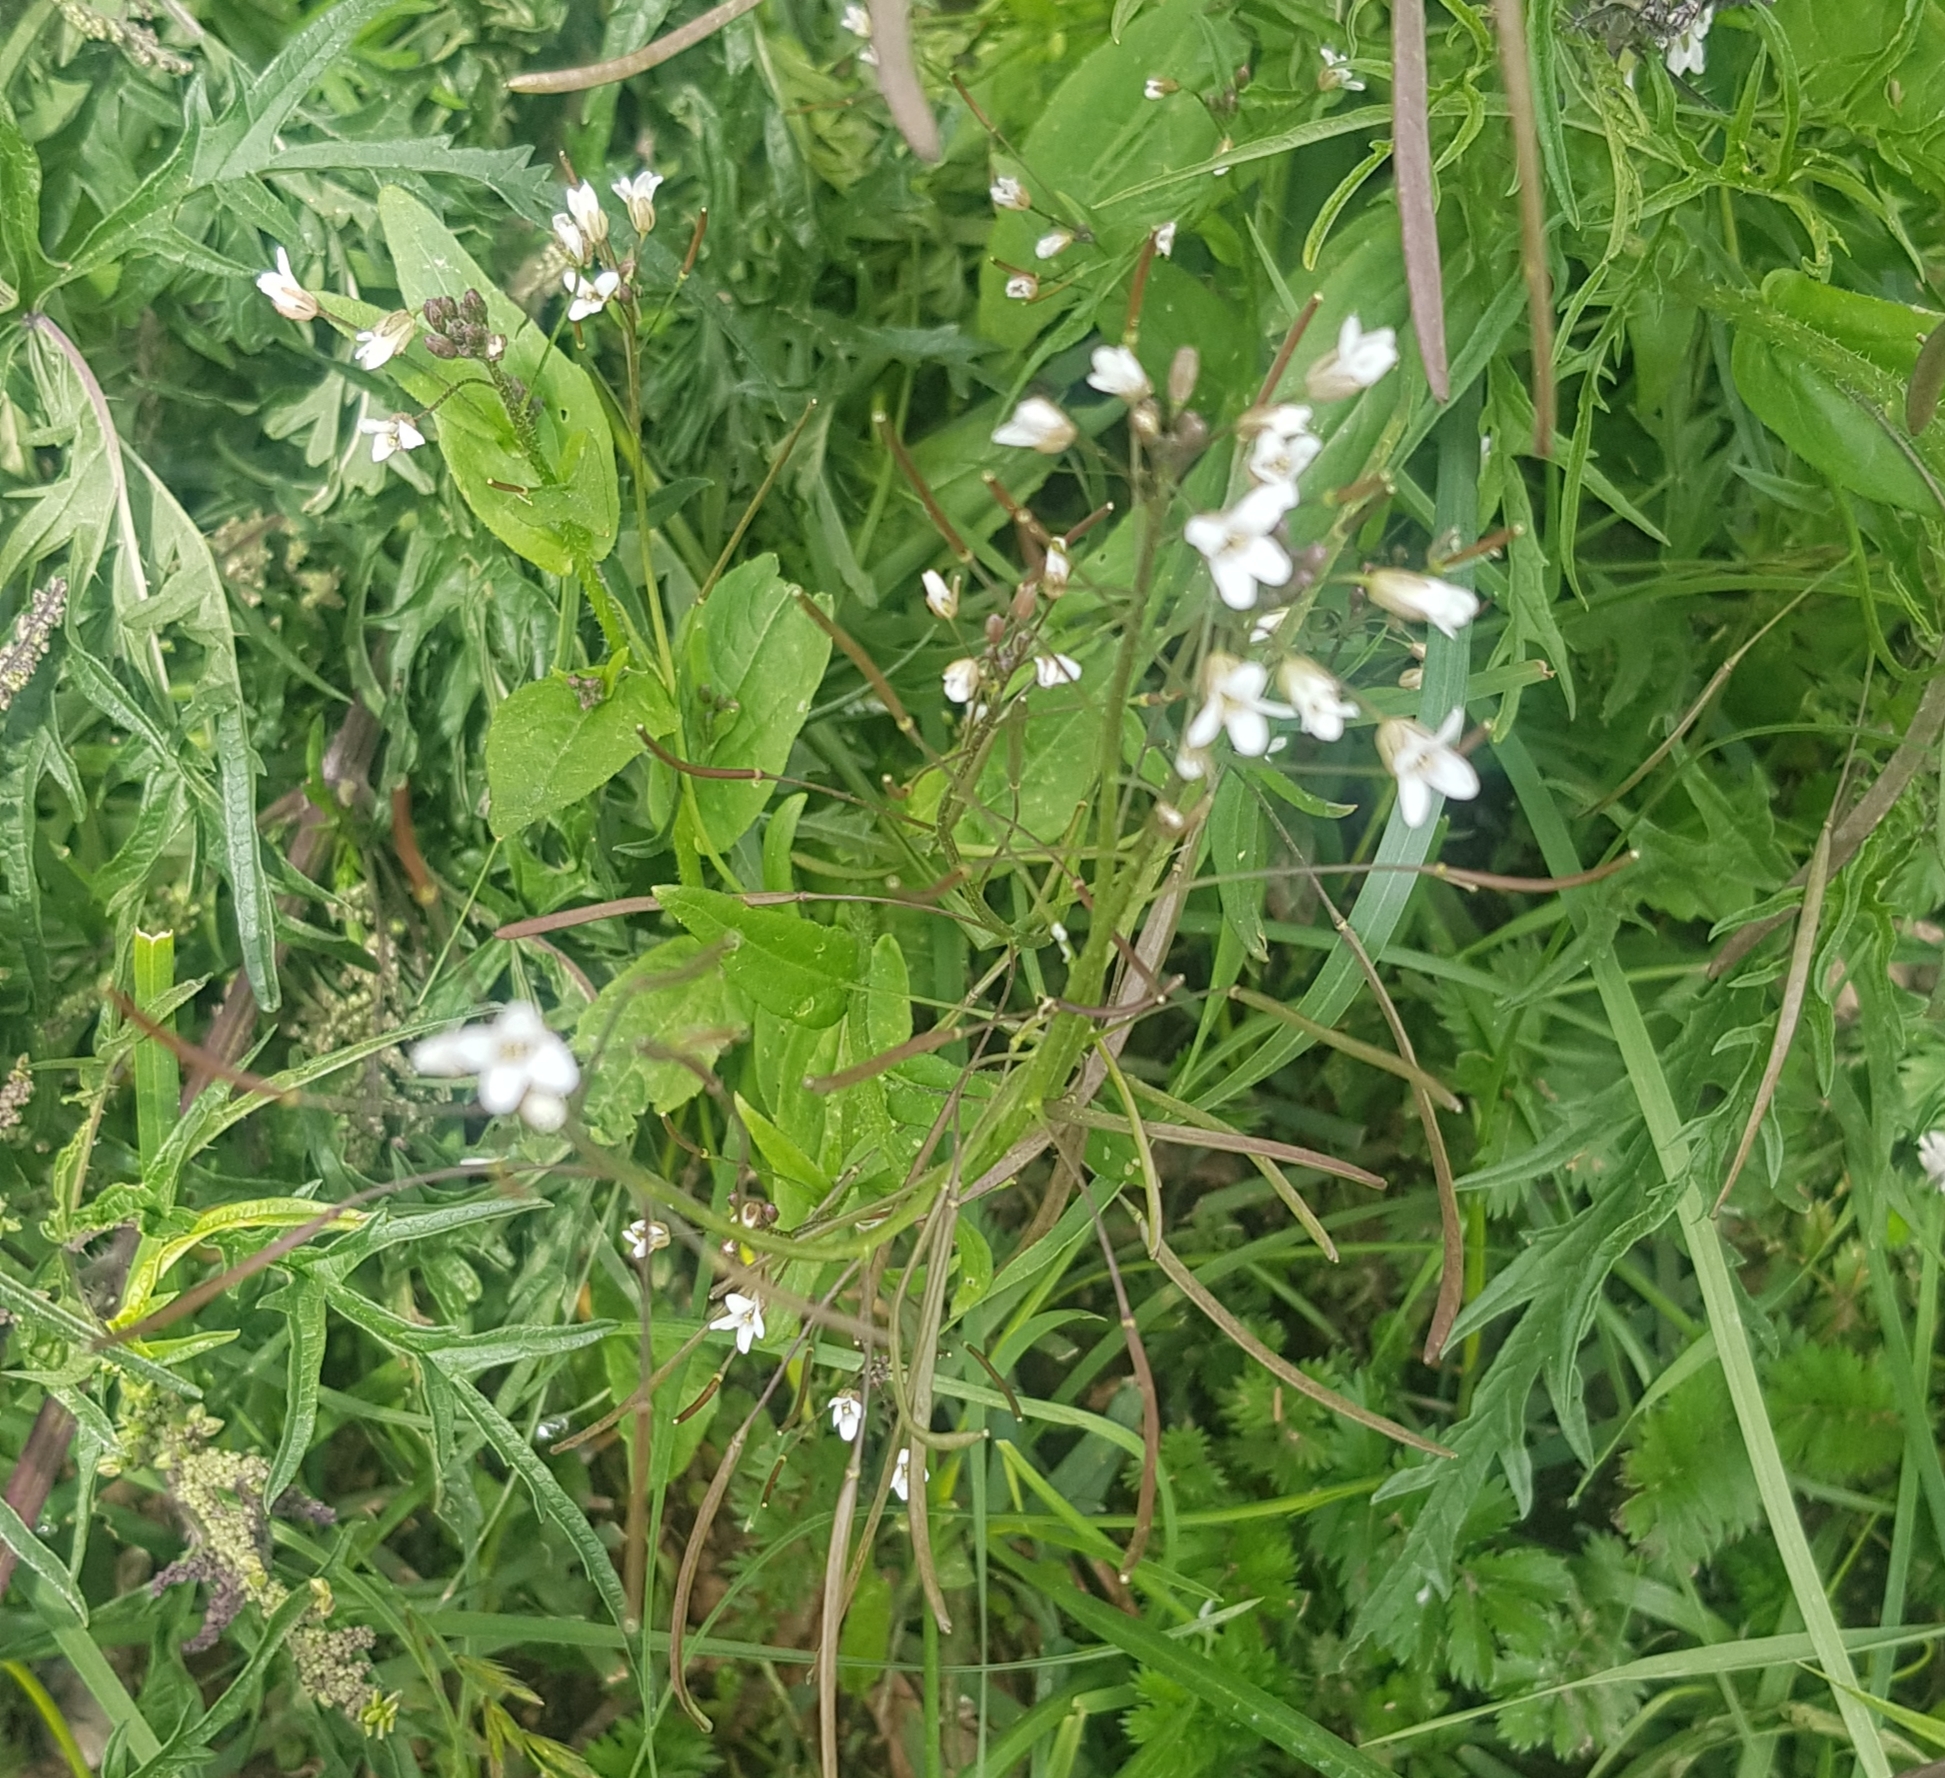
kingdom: Plantae
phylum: Tracheophyta
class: Magnoliopsida
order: Brassicales
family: Brassicaceae
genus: Catolobus
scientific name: Catolobus pendulus
